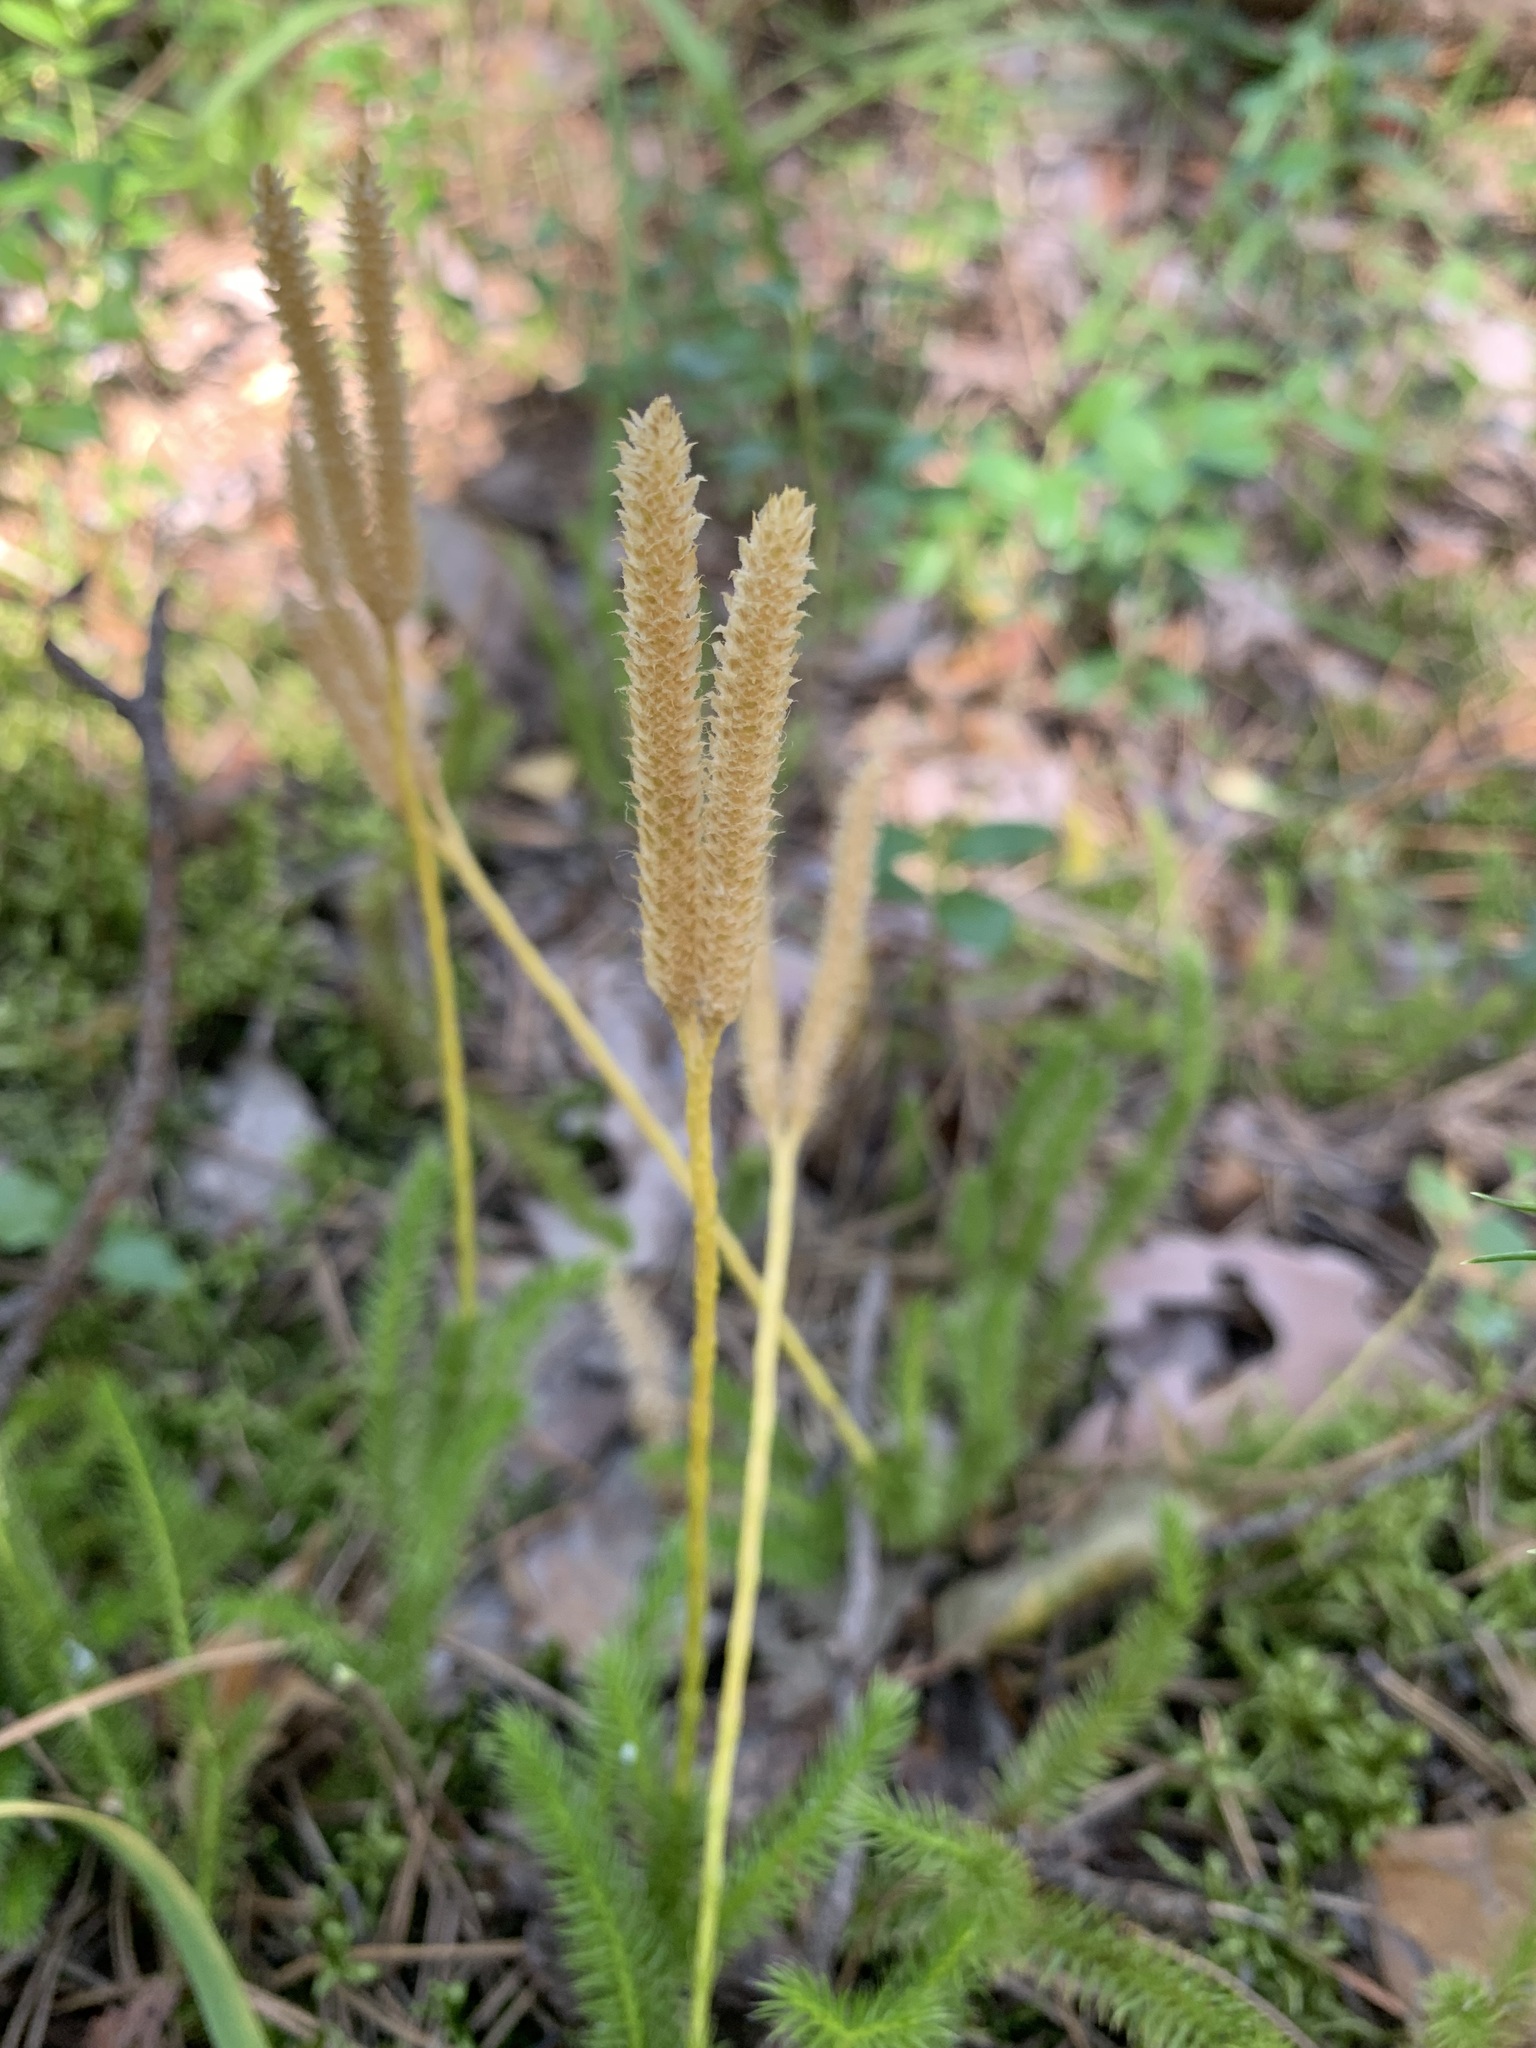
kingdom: Plantae
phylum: Tracheophyta
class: Lycopodiopsida
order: Lycopodiales
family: Lycopodiaceae
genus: Lycopodium
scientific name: Lycopodium clavatum
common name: Stag's-horn clubmoss
